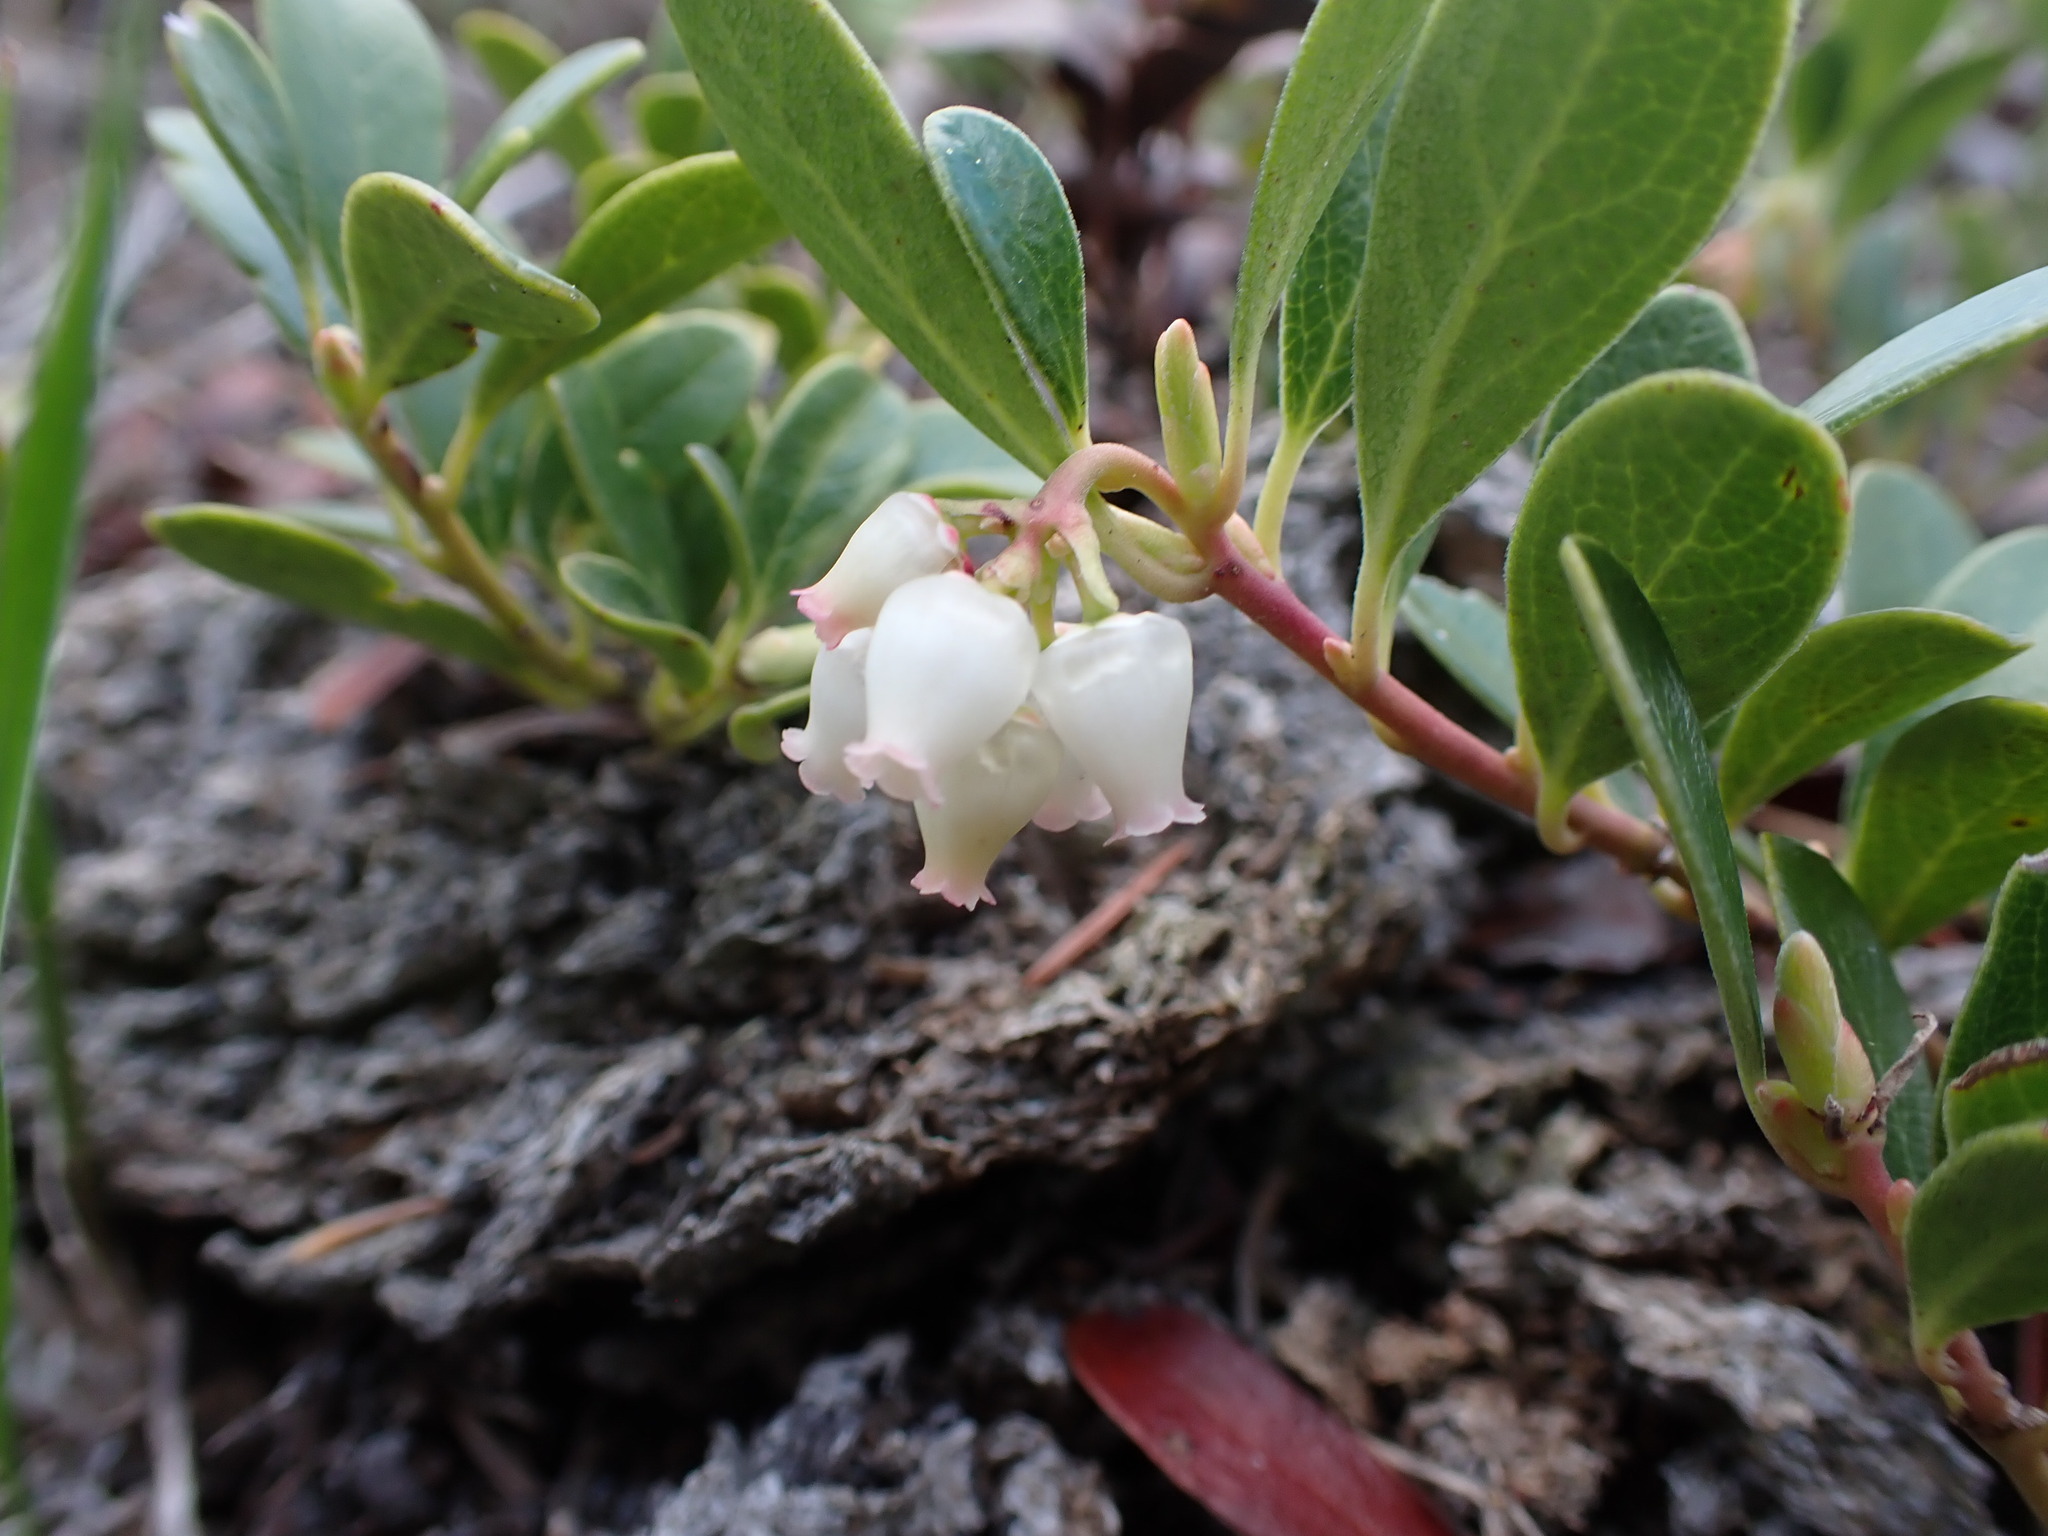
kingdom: Plantae
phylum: Tracheophyta
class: Magnoliopsida
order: Ericales
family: Ericaceae
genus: Arctostaphylos
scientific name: Arctostaphylos uva-ursi
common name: Bearberry
